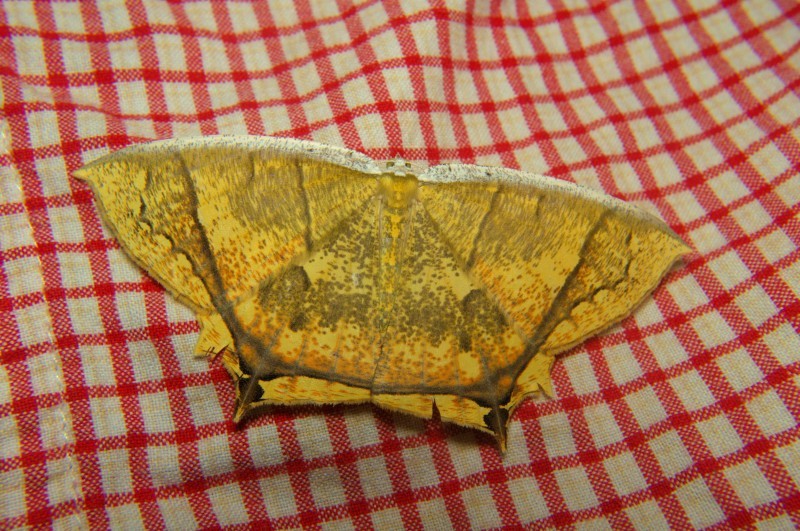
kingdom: Animalia
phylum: Arthropoda
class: Insecta
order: Lepidoptera
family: Geometridae
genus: Thinopteryx
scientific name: Thinopteryx crocoptera
